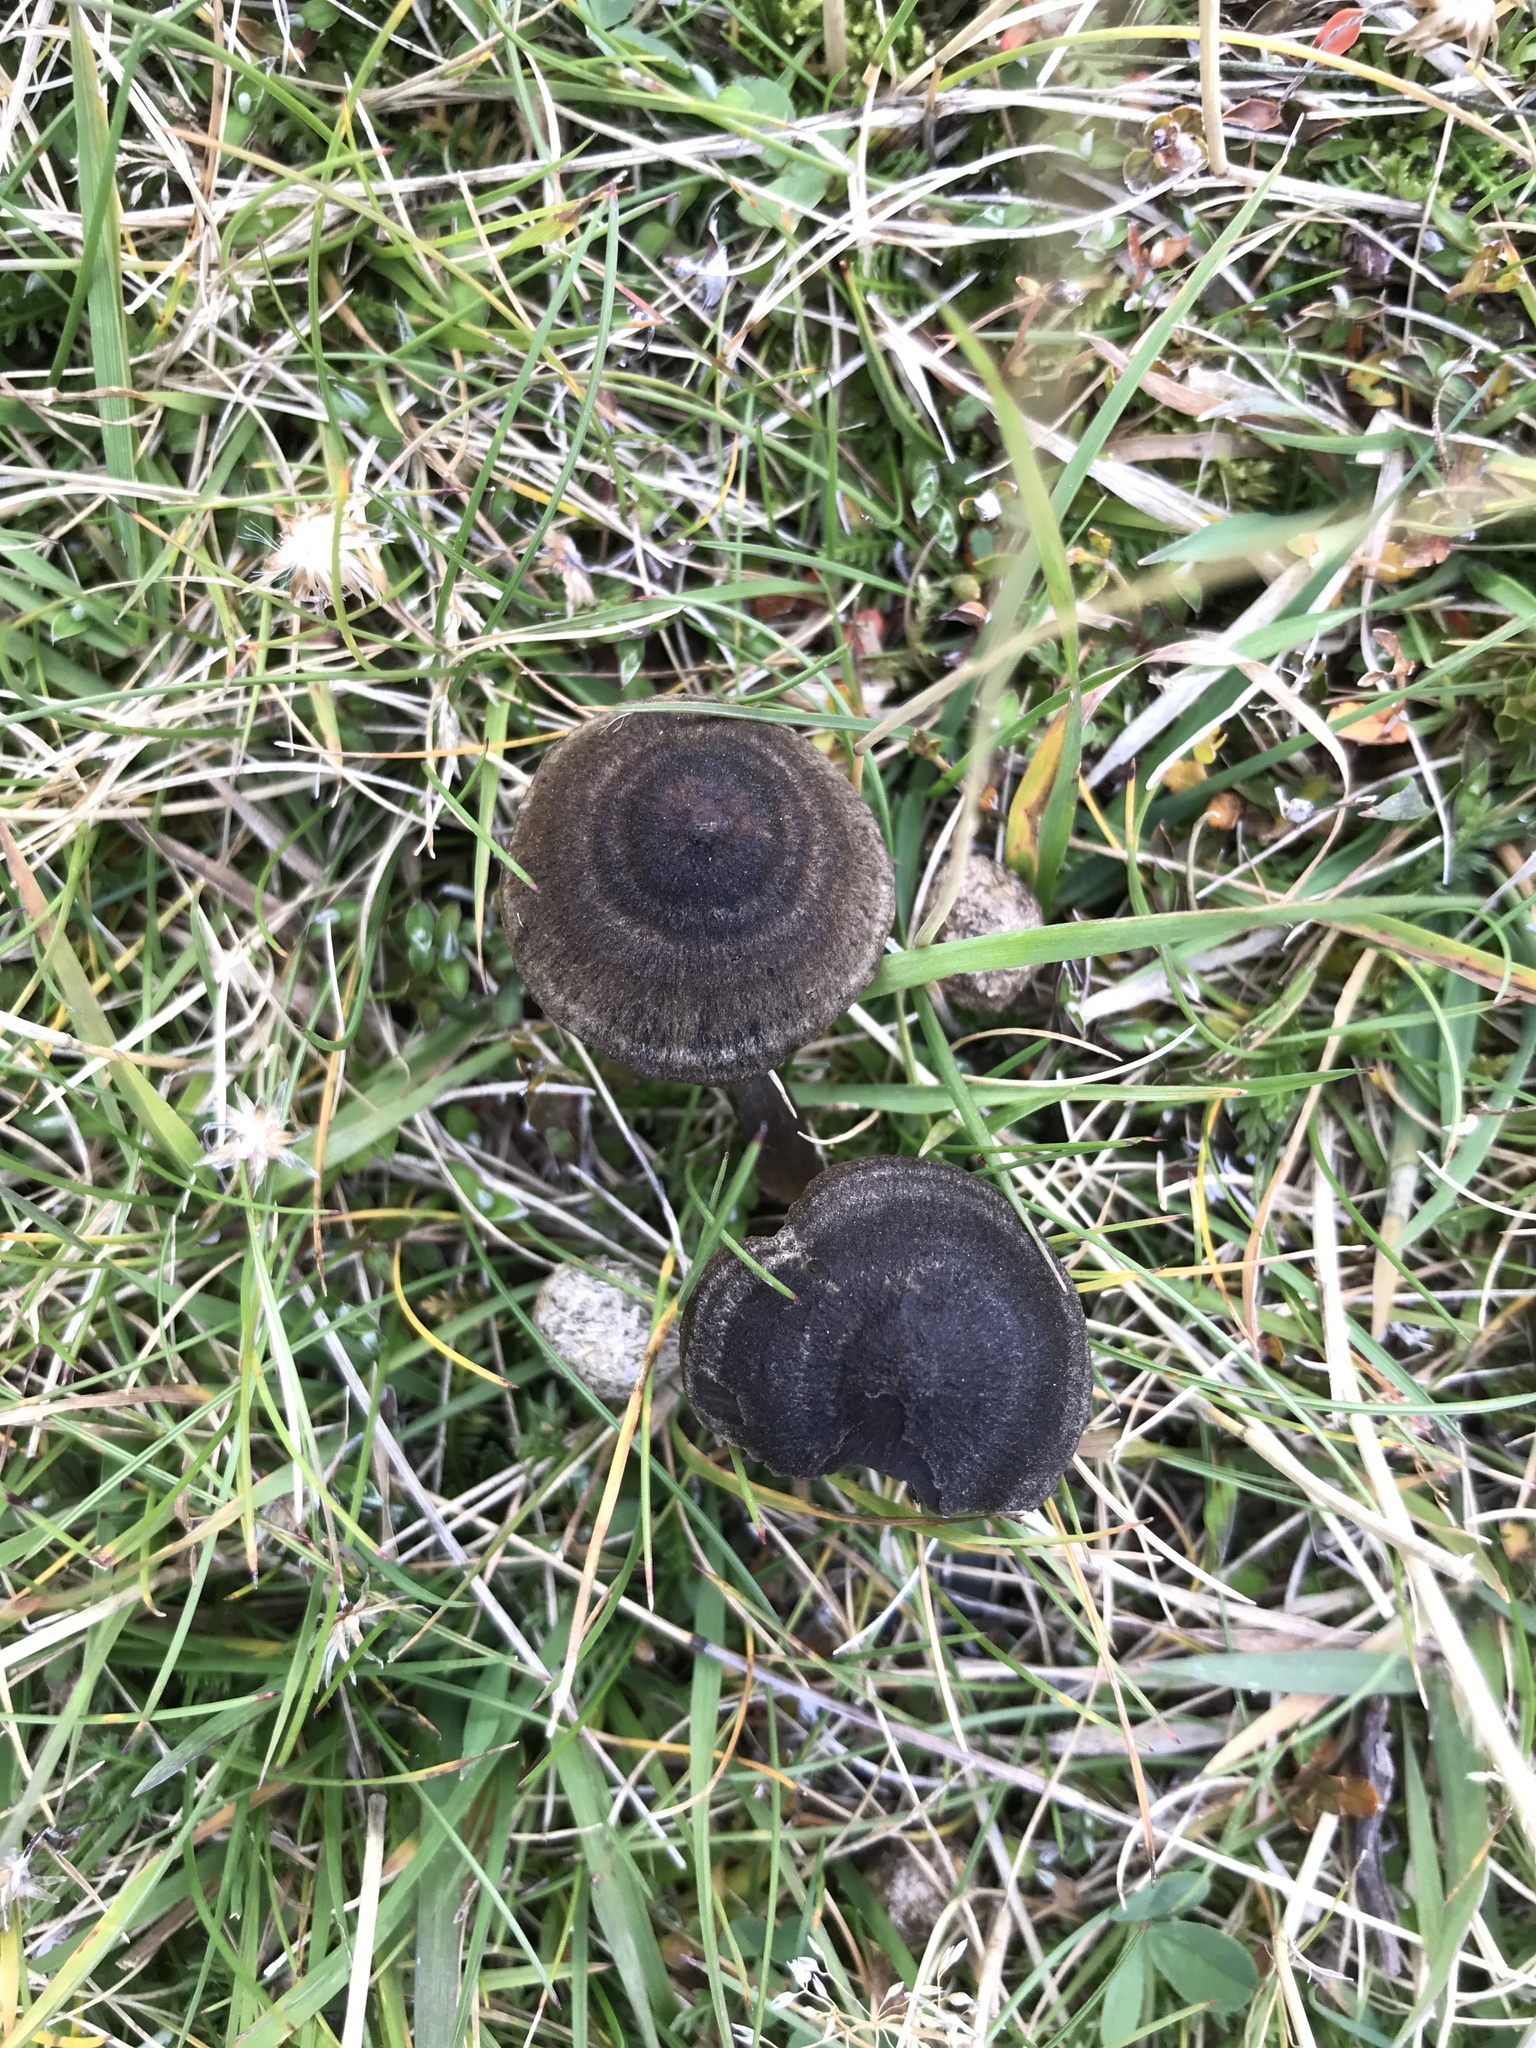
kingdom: Fungi
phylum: Basidiomycota
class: Agaricomycetes
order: Agaricales
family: Entolomataceae
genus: Entoloma
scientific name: Entoloma perzonatum
